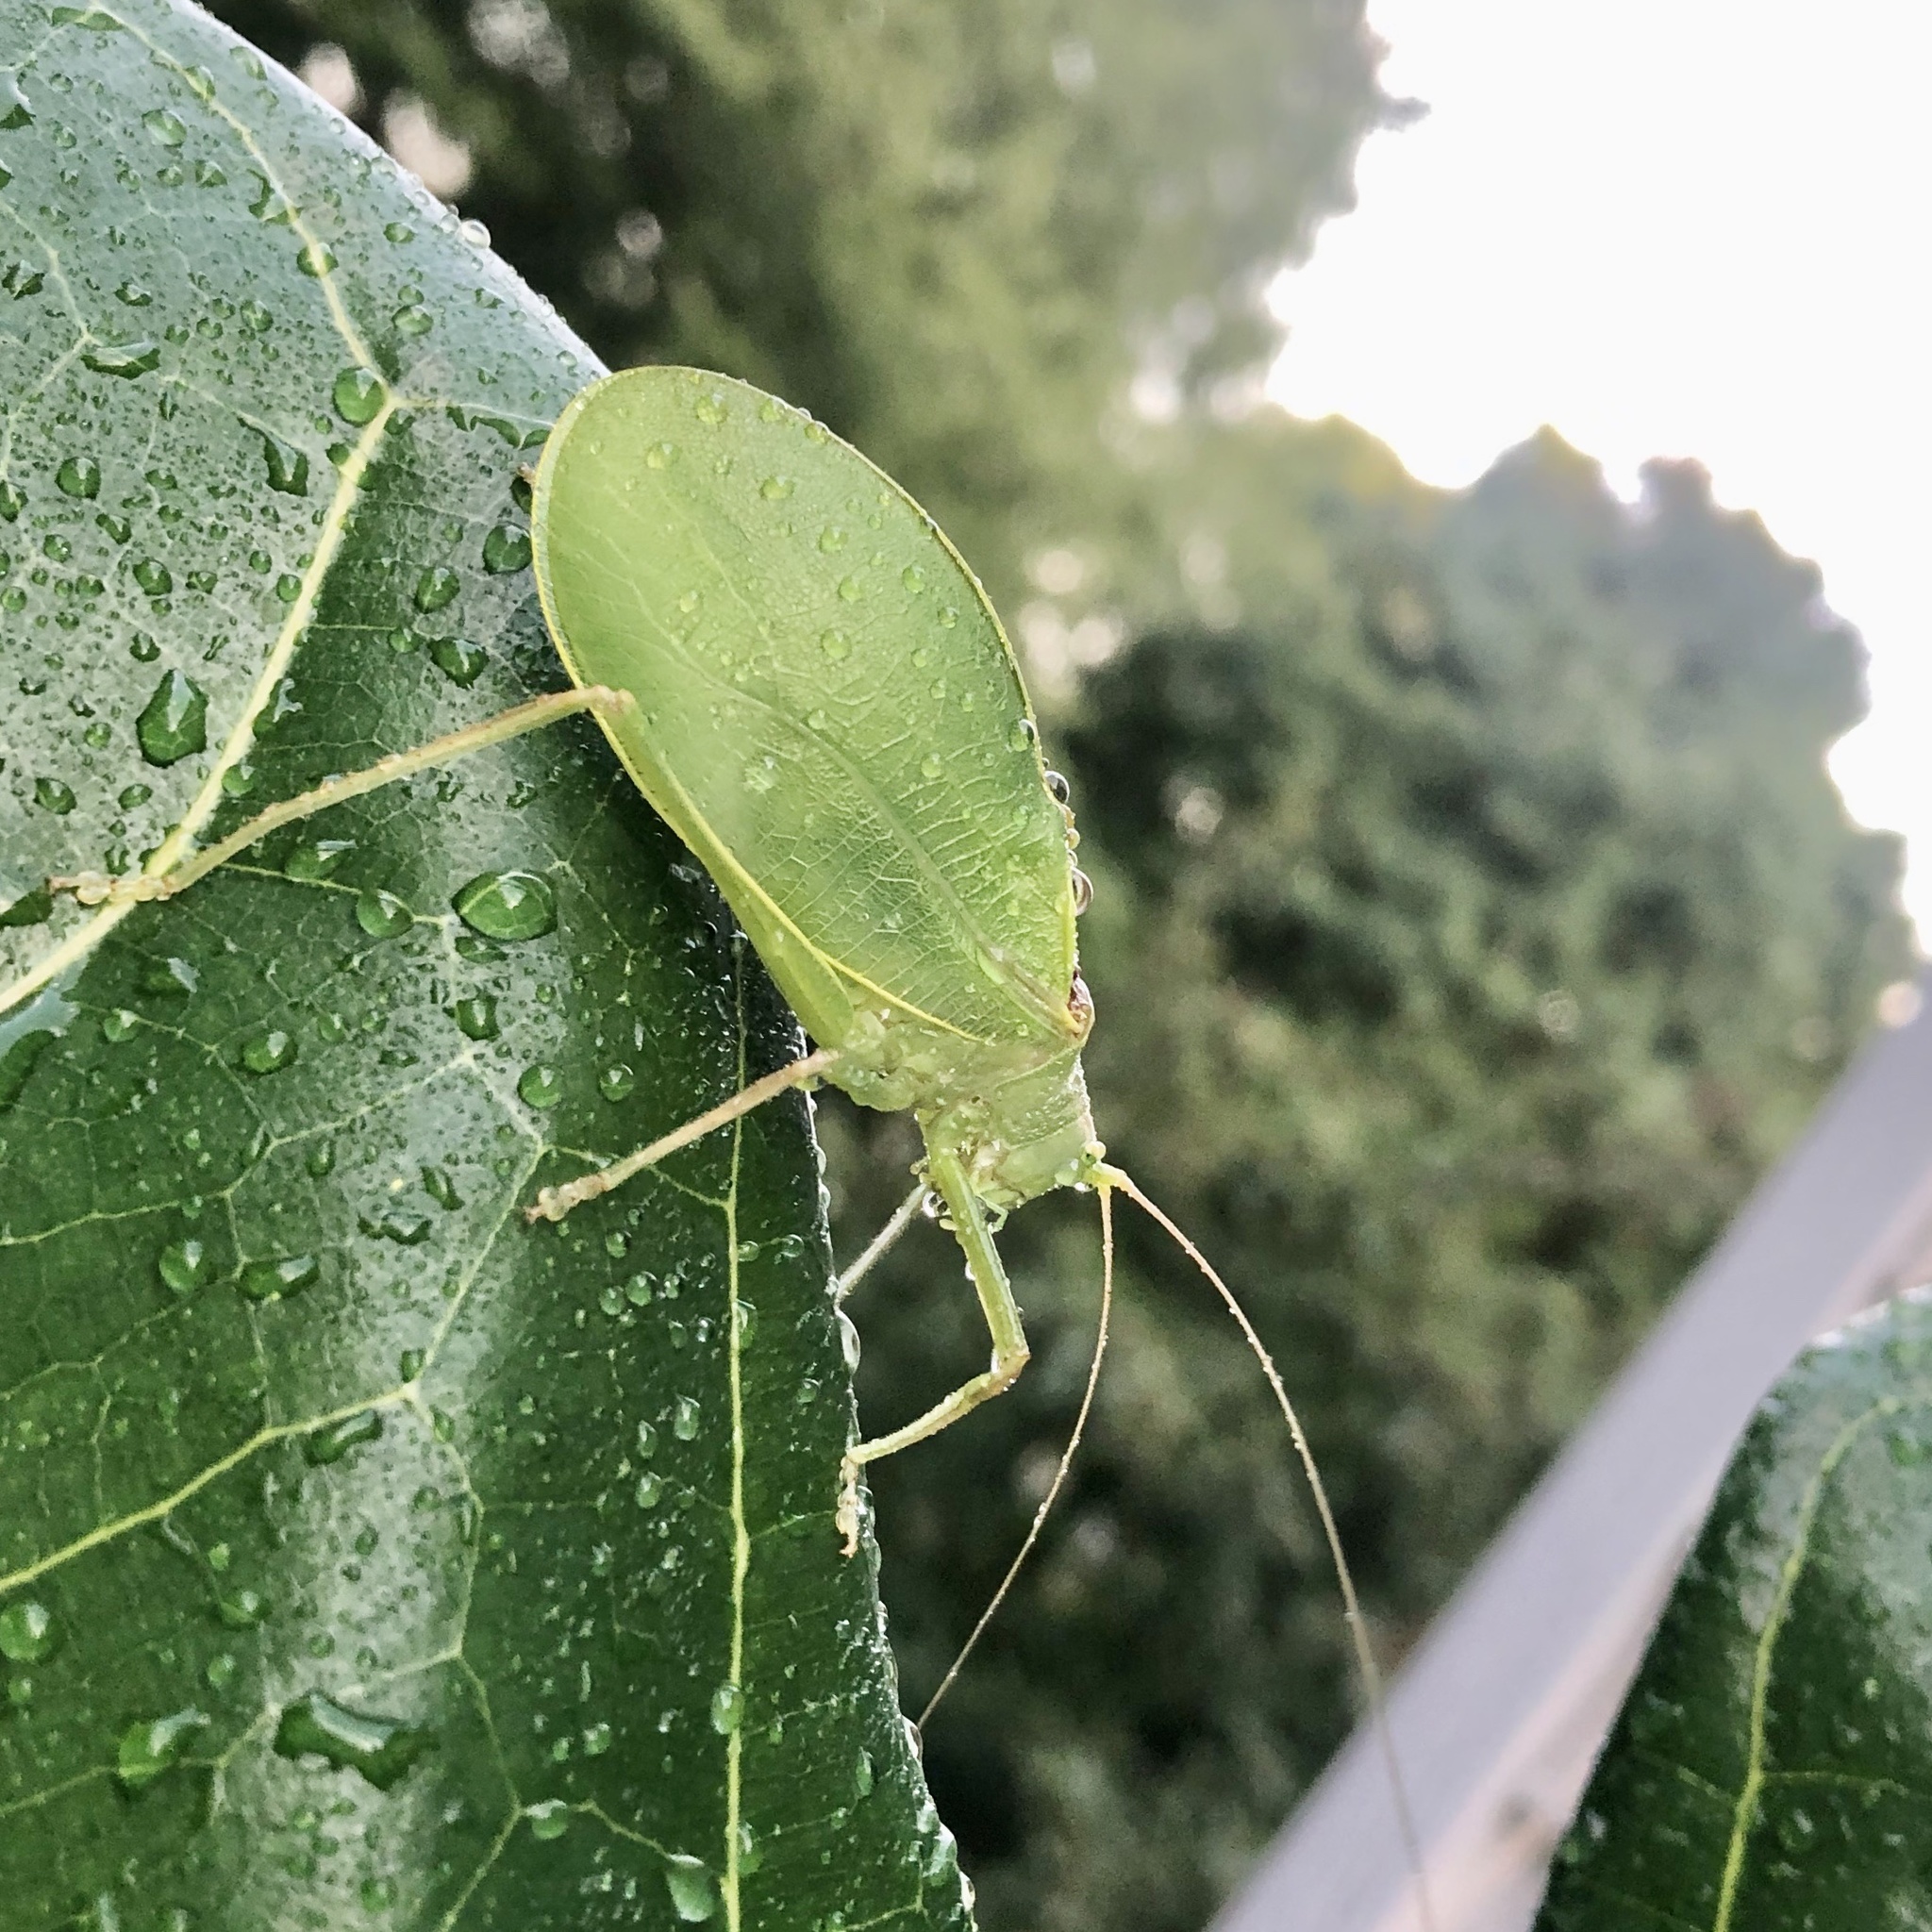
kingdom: Animalia
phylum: Arthropoda
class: Insecta
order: Orthoptera
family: Tettigoniidae
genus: Pterophylla
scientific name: Pterophylla camellifolia
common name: Common true katydid
